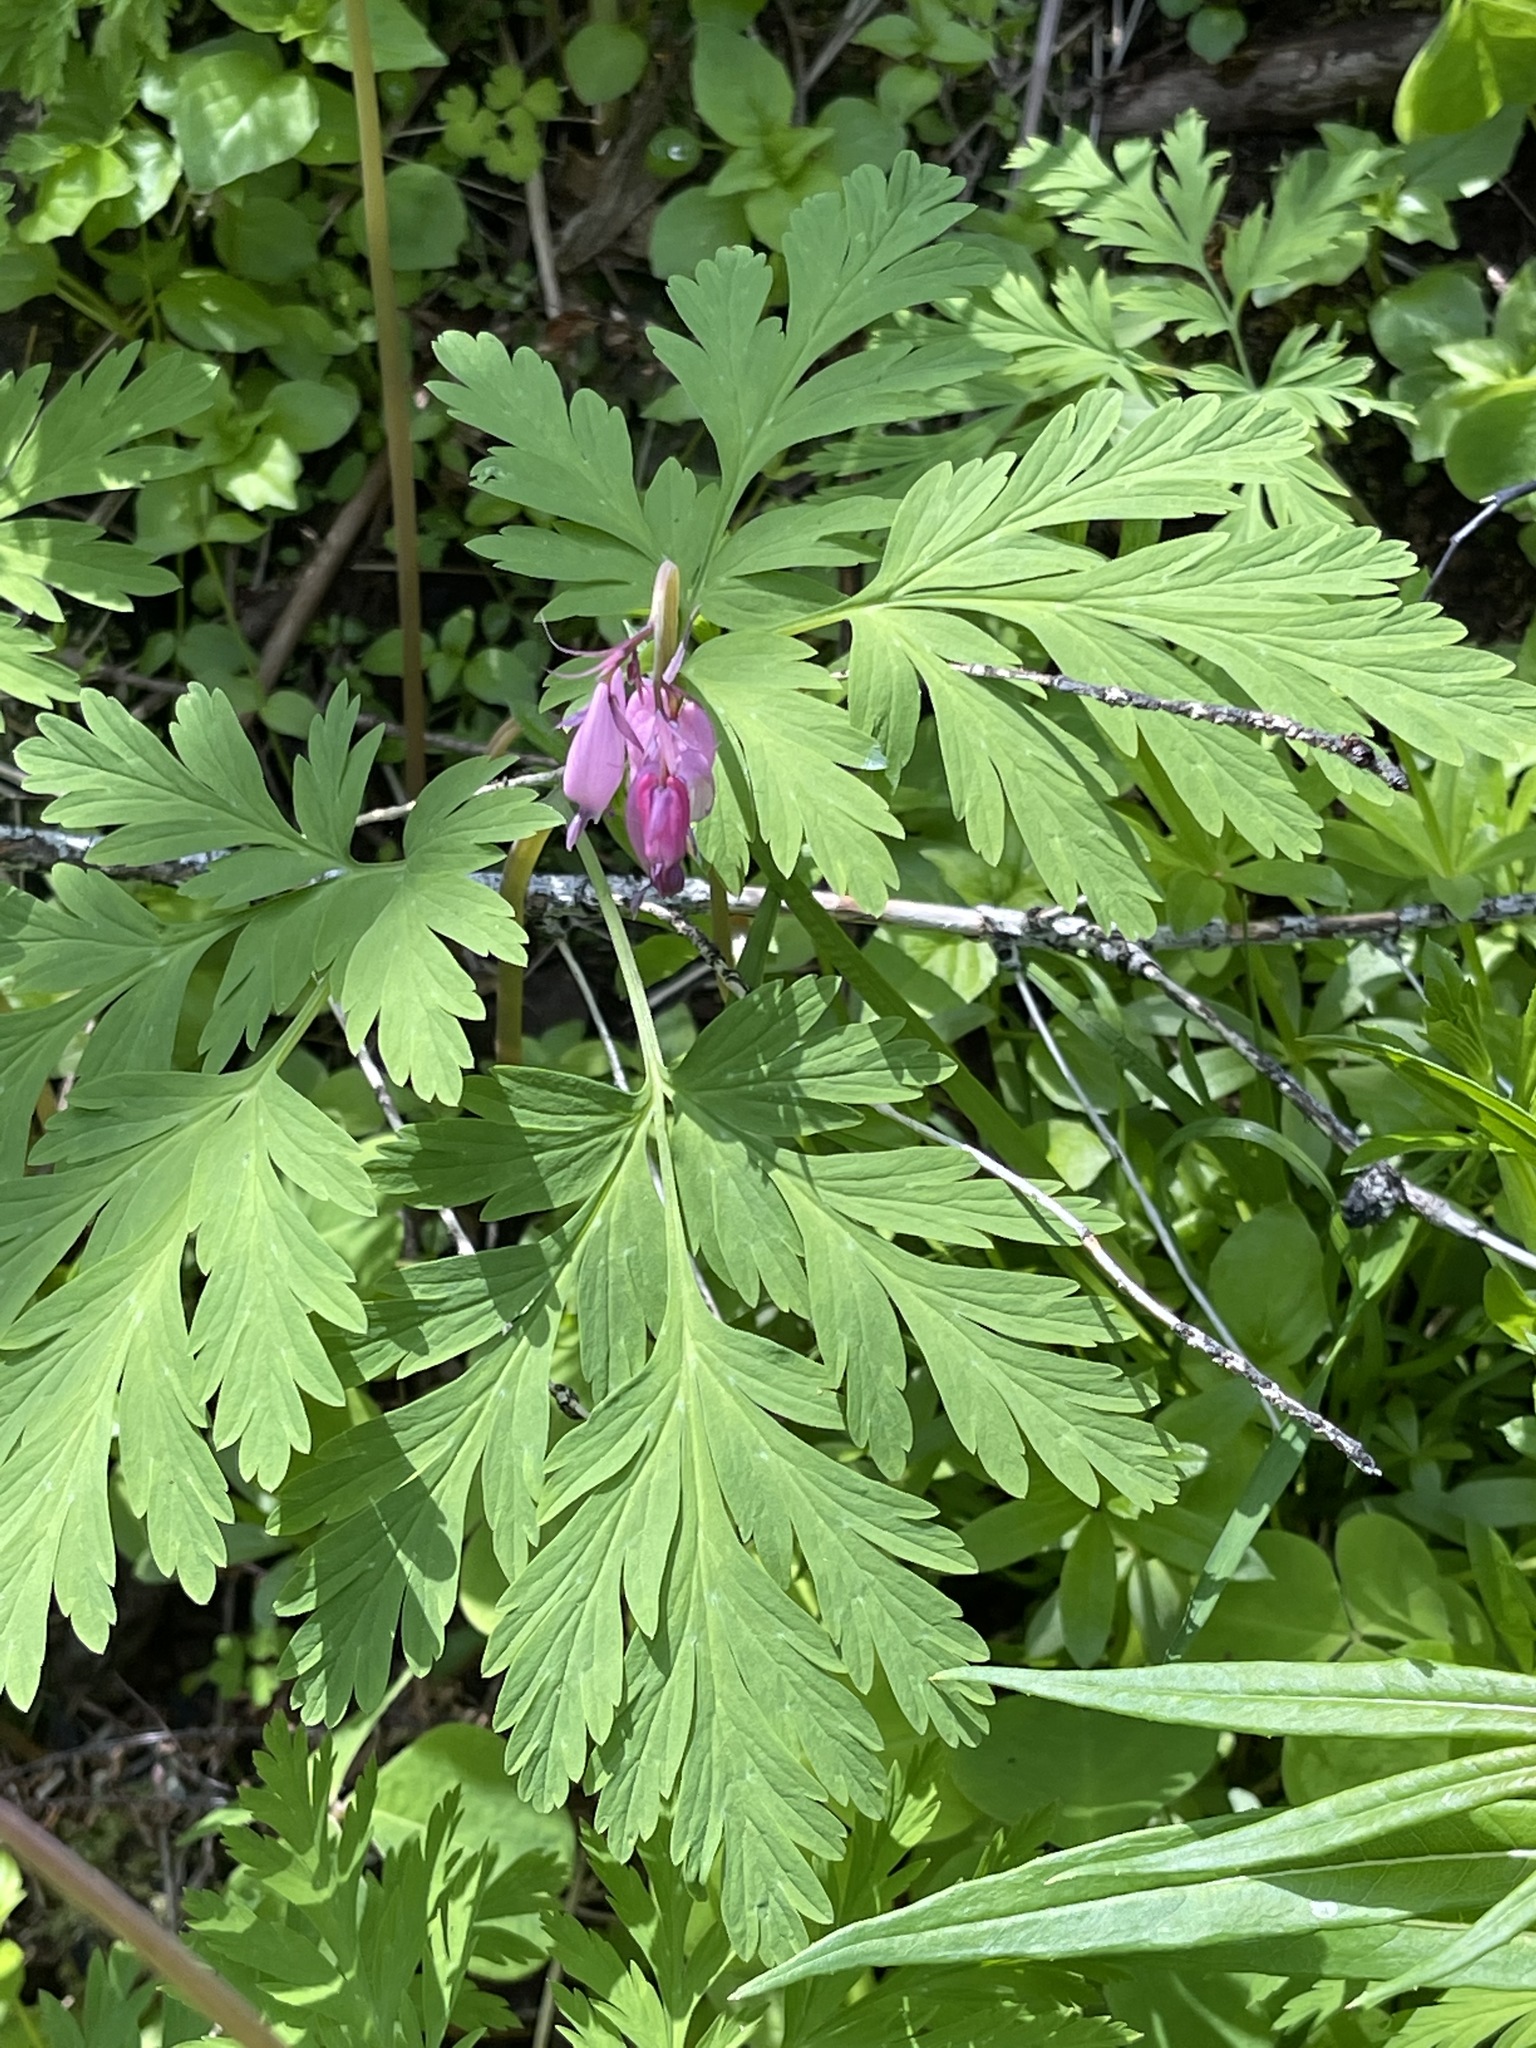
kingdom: Plantae
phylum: Tracheophyta
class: Magnoliopsida
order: Ranunculales
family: Papaveraceae
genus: Dicentra
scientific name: Dicentra formosa
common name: Bleeding-heart
